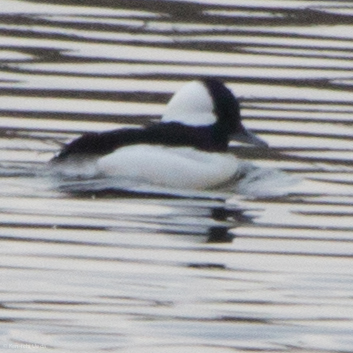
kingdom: Animalia
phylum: Chordata
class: Aves
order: Anseriformes
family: Anatidae
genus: Bucephala
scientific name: Bucephala albeola
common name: Bufflehead
